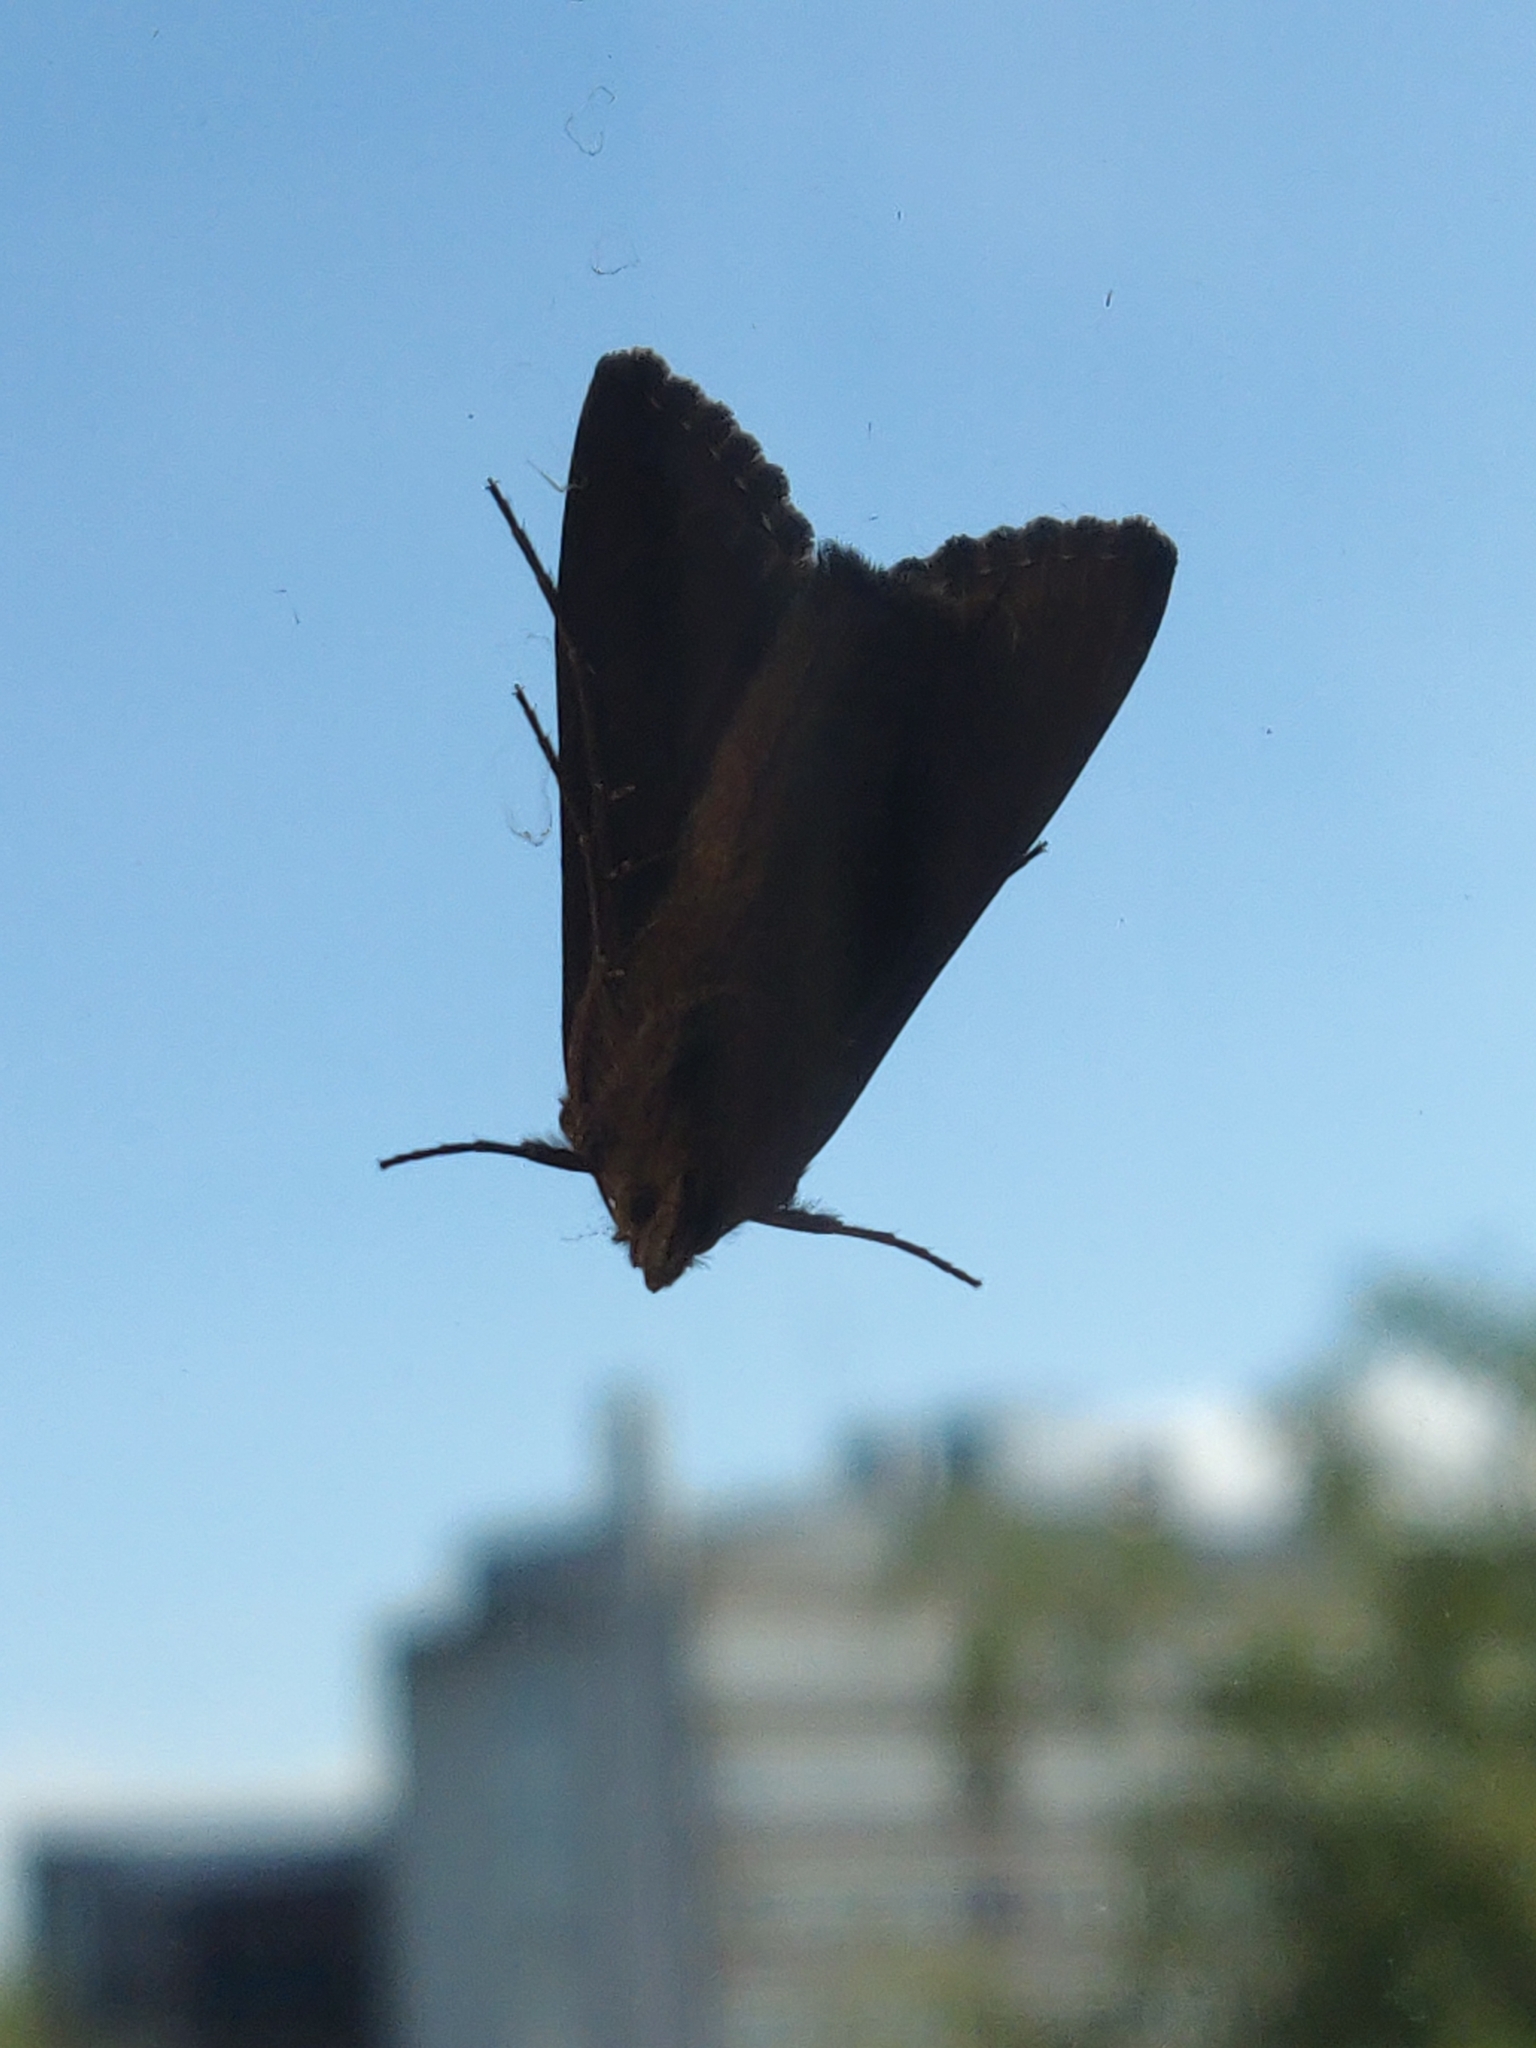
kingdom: Animalia
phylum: Arthropoda
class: Insecta
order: Lepidoptera
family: Noctuidae
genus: Autographa
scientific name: Autographa gamma
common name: Silver y
